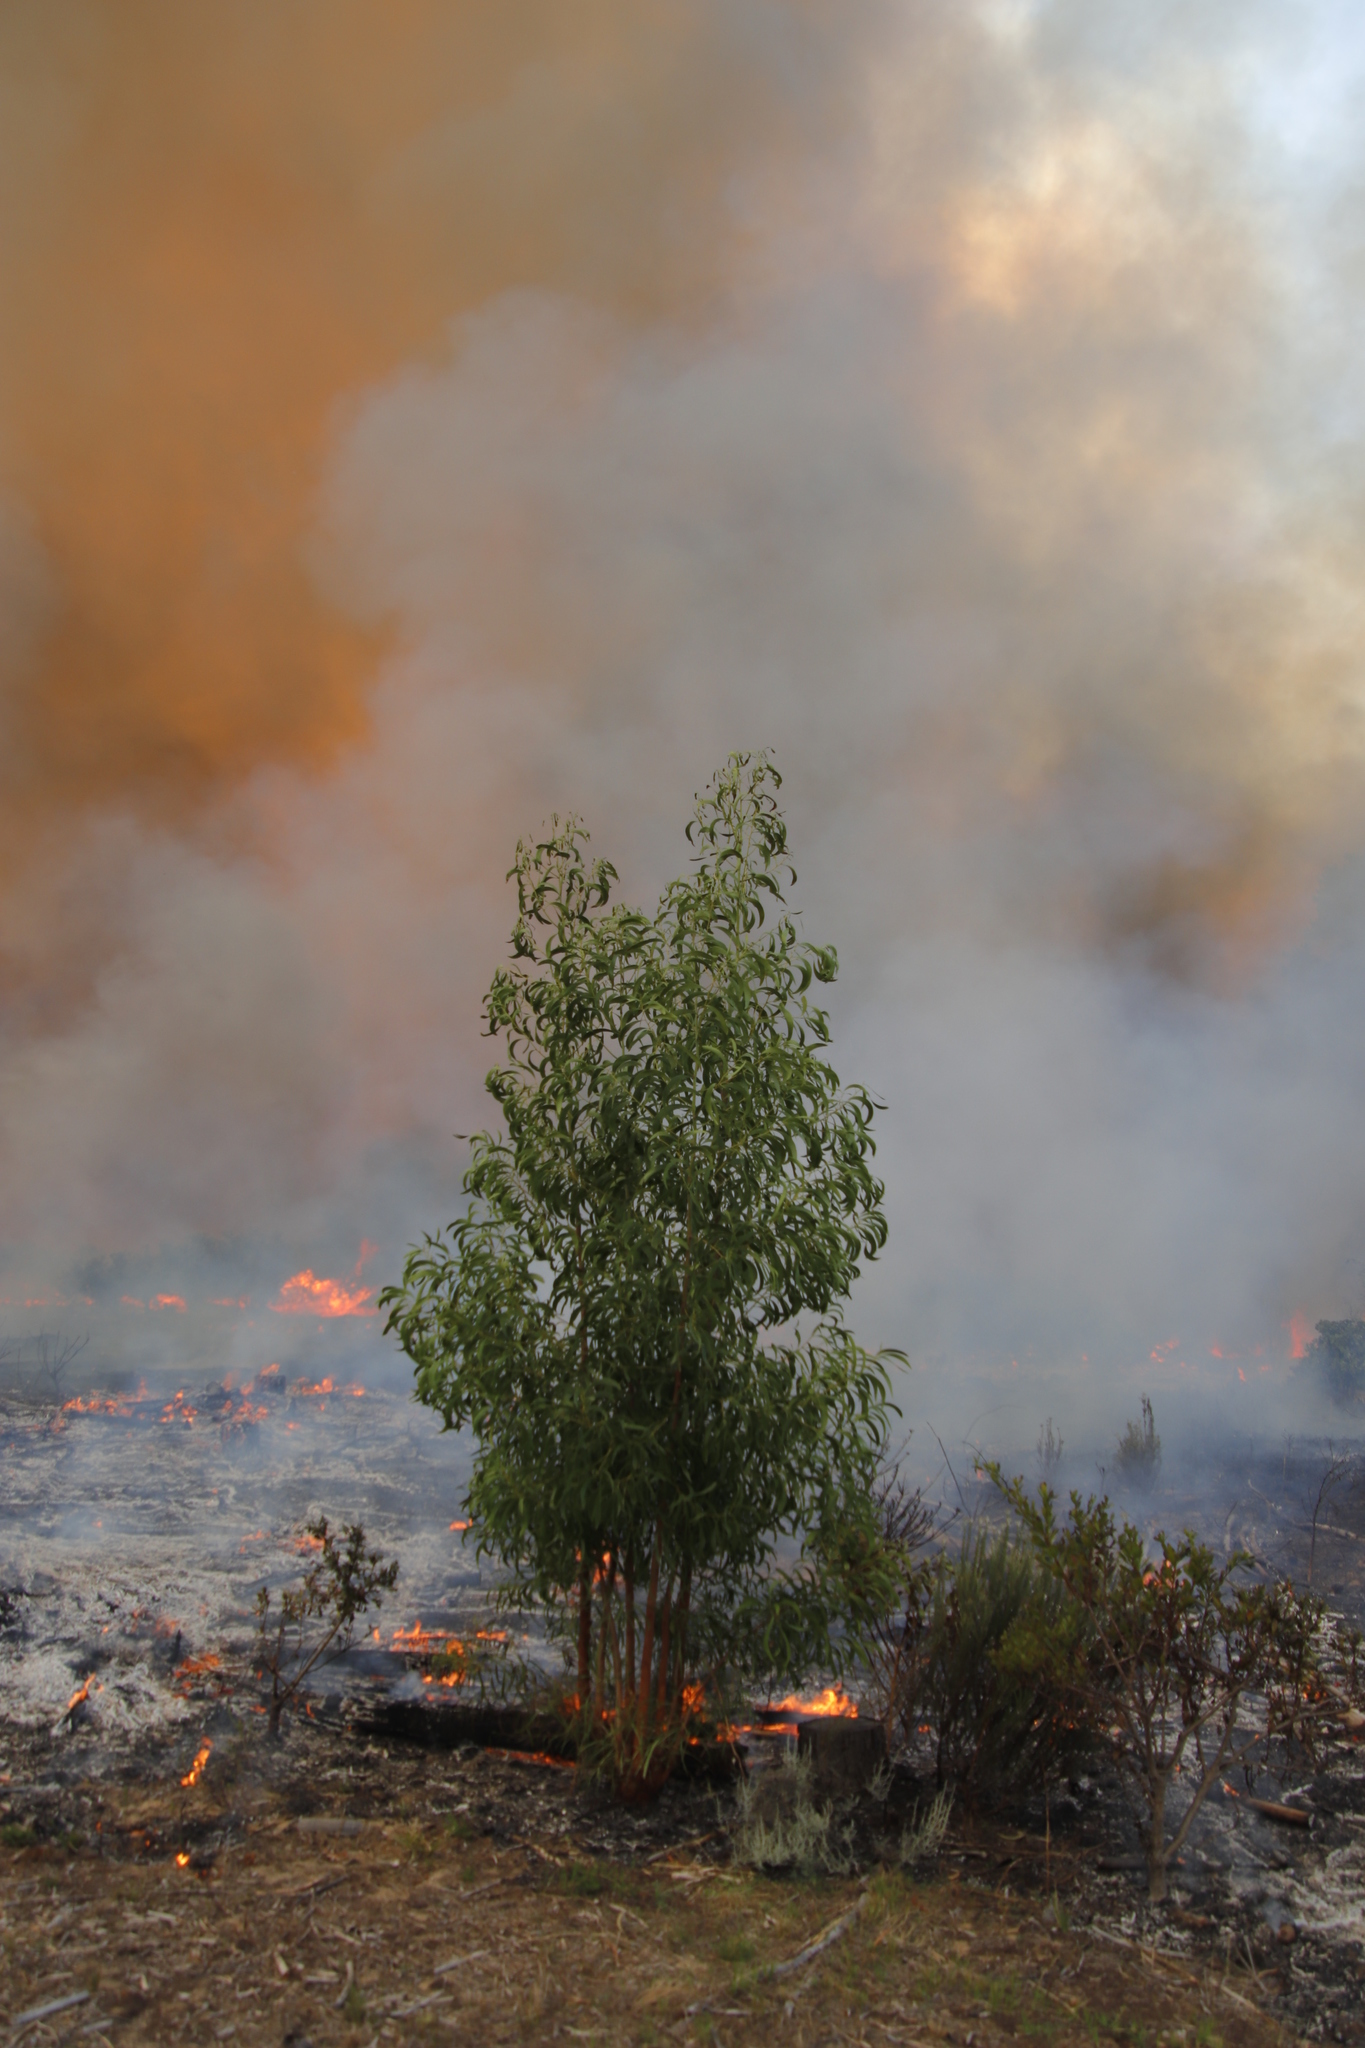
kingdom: Plantae
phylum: Tracheophyta
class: Magnoliopsida
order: Fabales
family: Fabaceae
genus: Acacia
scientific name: Acacia implexa
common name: Black wattle
